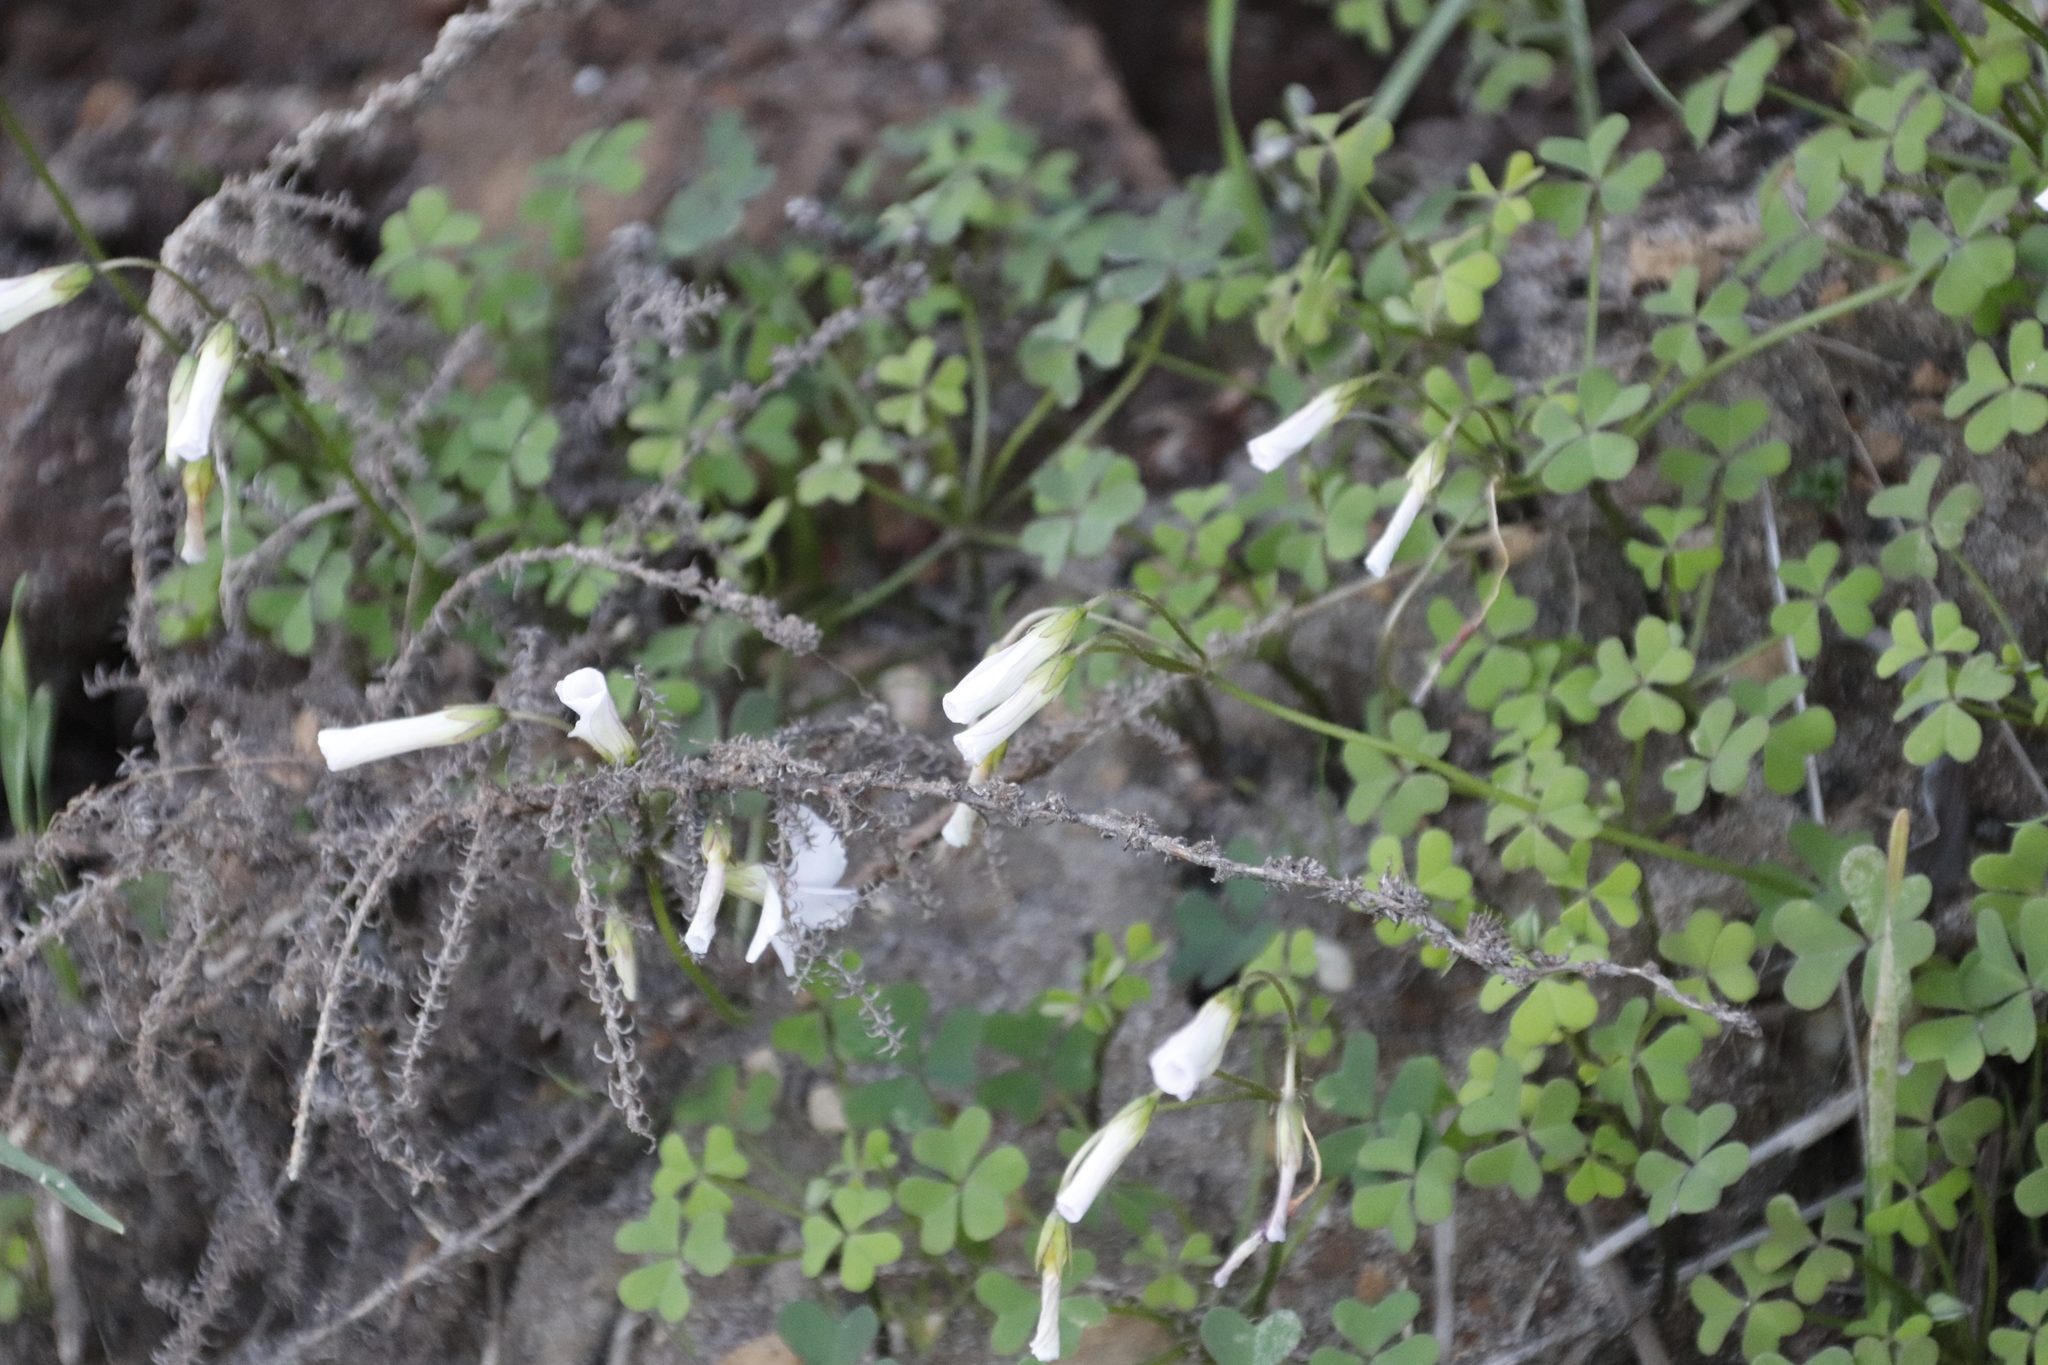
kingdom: Plantae
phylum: Tracheophyta
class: Magnoliopsida
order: Oxalidales
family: Oxalidaceae
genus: Oxalis
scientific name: Oxalis
